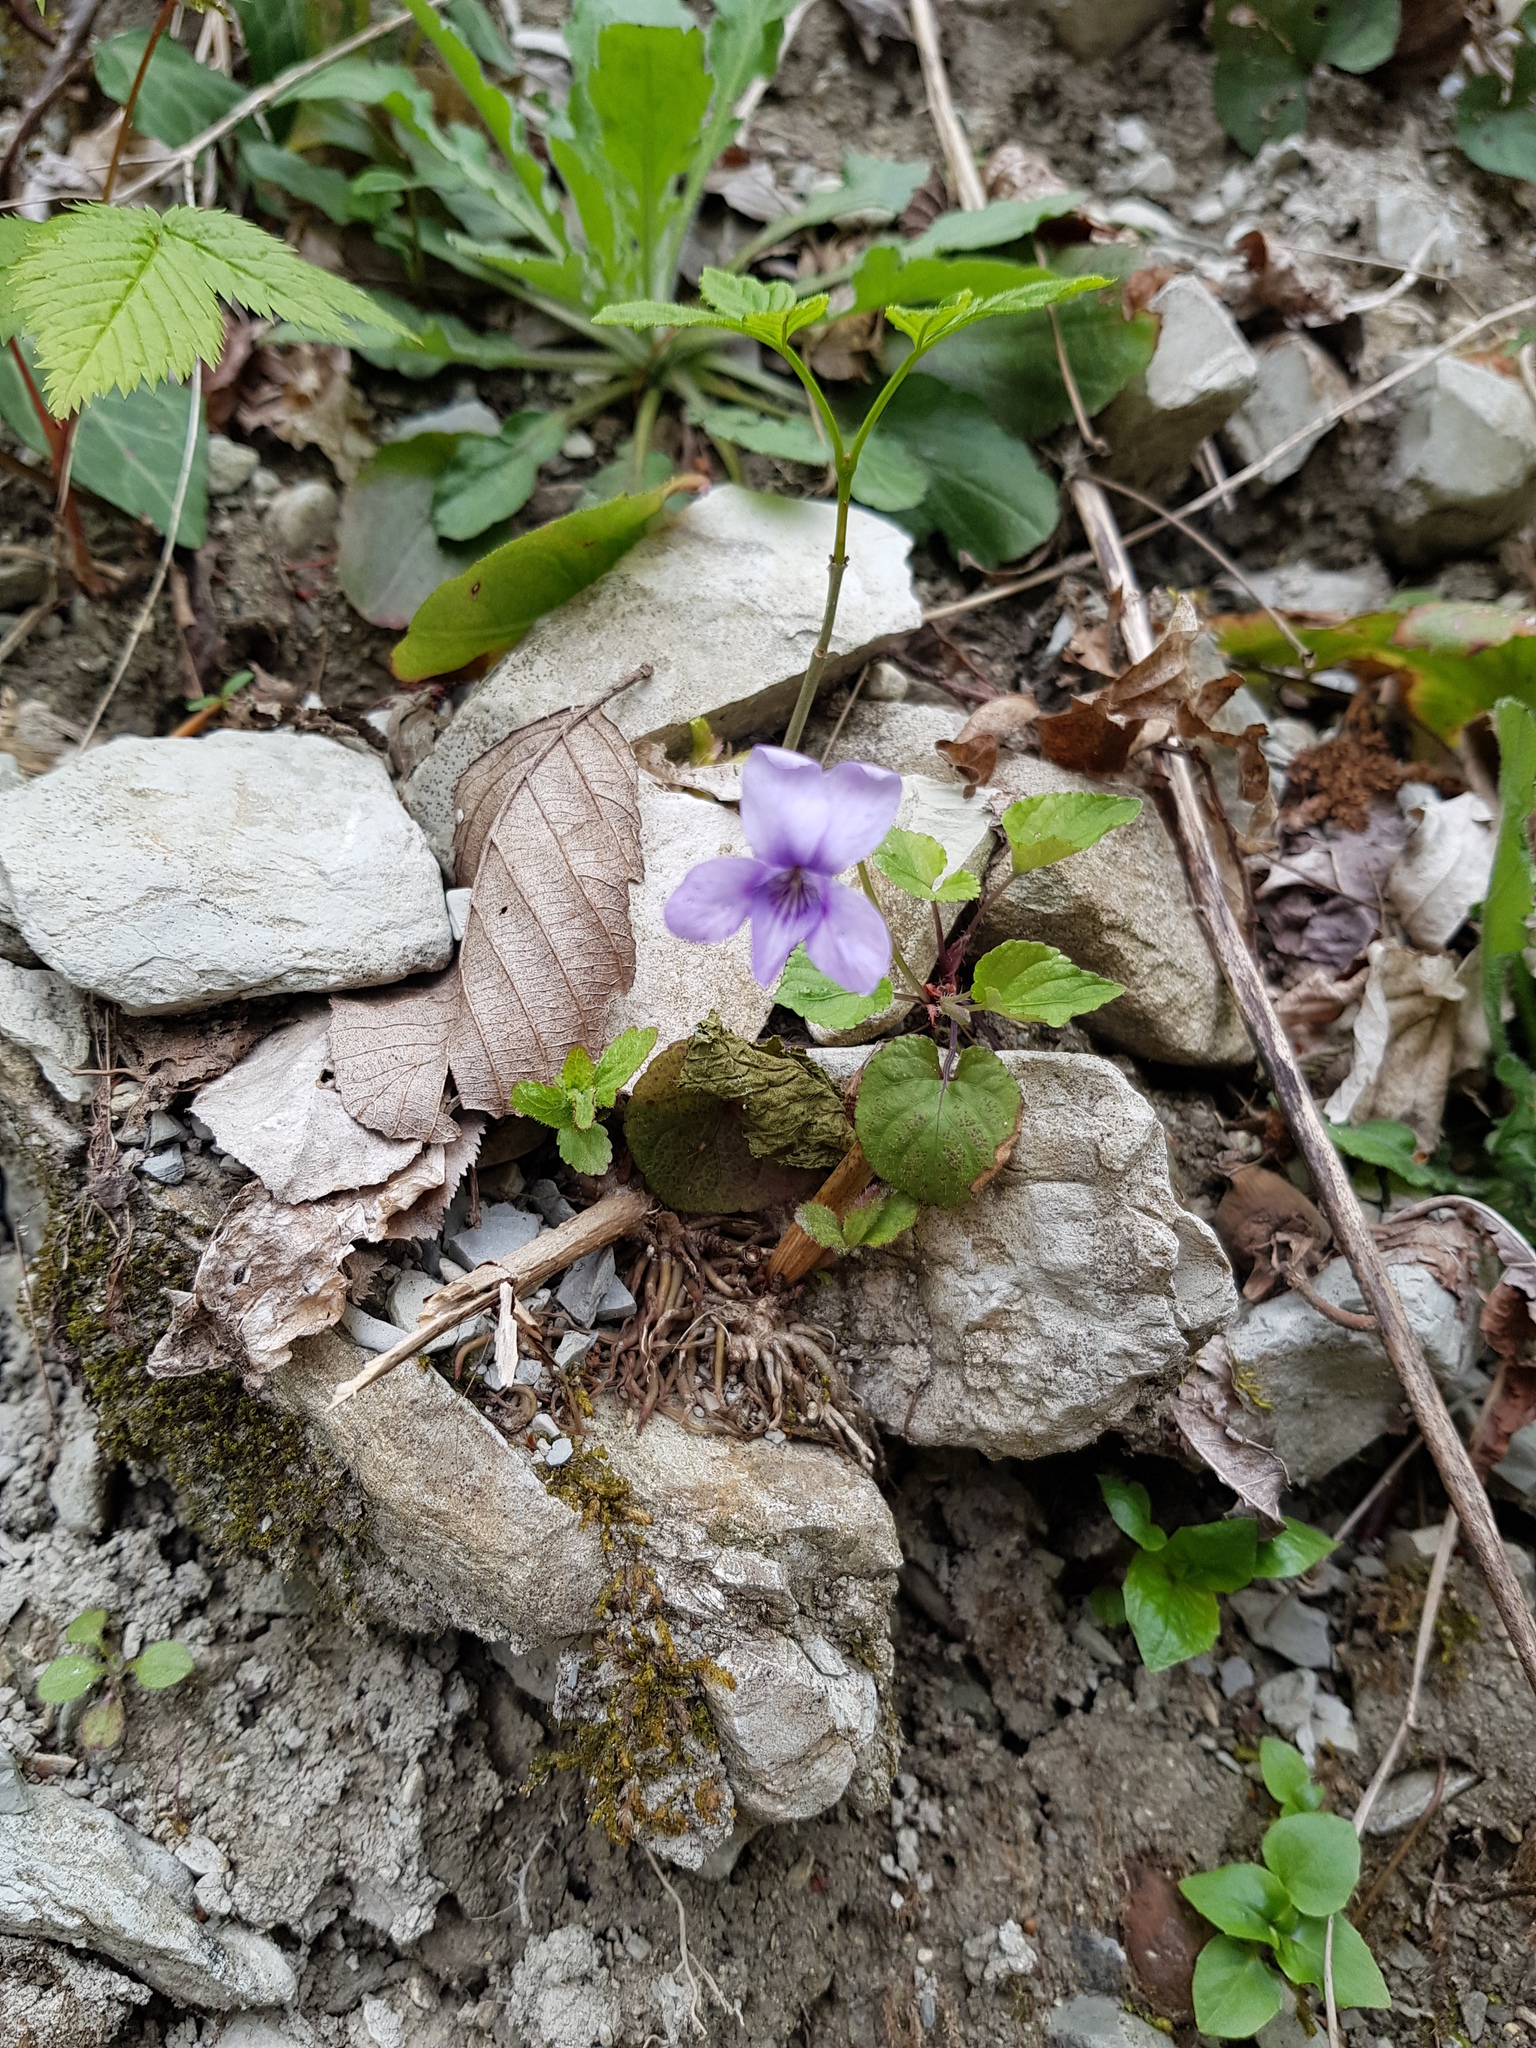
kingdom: Plantae
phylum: Tracheophyta
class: Magnoliopsida
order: Malpighiales
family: Violaceae
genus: Viola
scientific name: Viola reichenbachiana
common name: Early dog-violet
